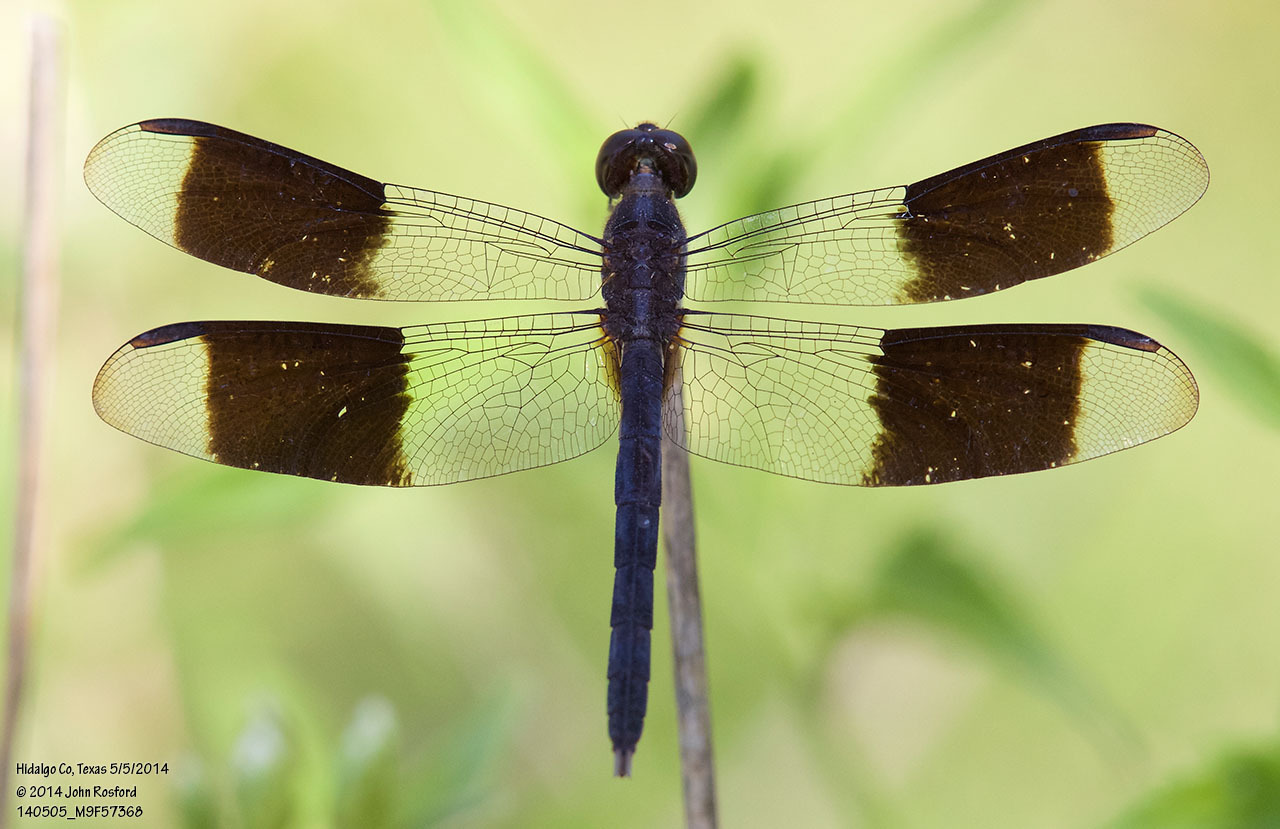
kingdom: Animalia
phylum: Arthropoda
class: Insecta
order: Odonata
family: Libellulidae
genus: Erythrodiplax
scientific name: Erythrodiplax umbrata
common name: Band-winged dragonlet
